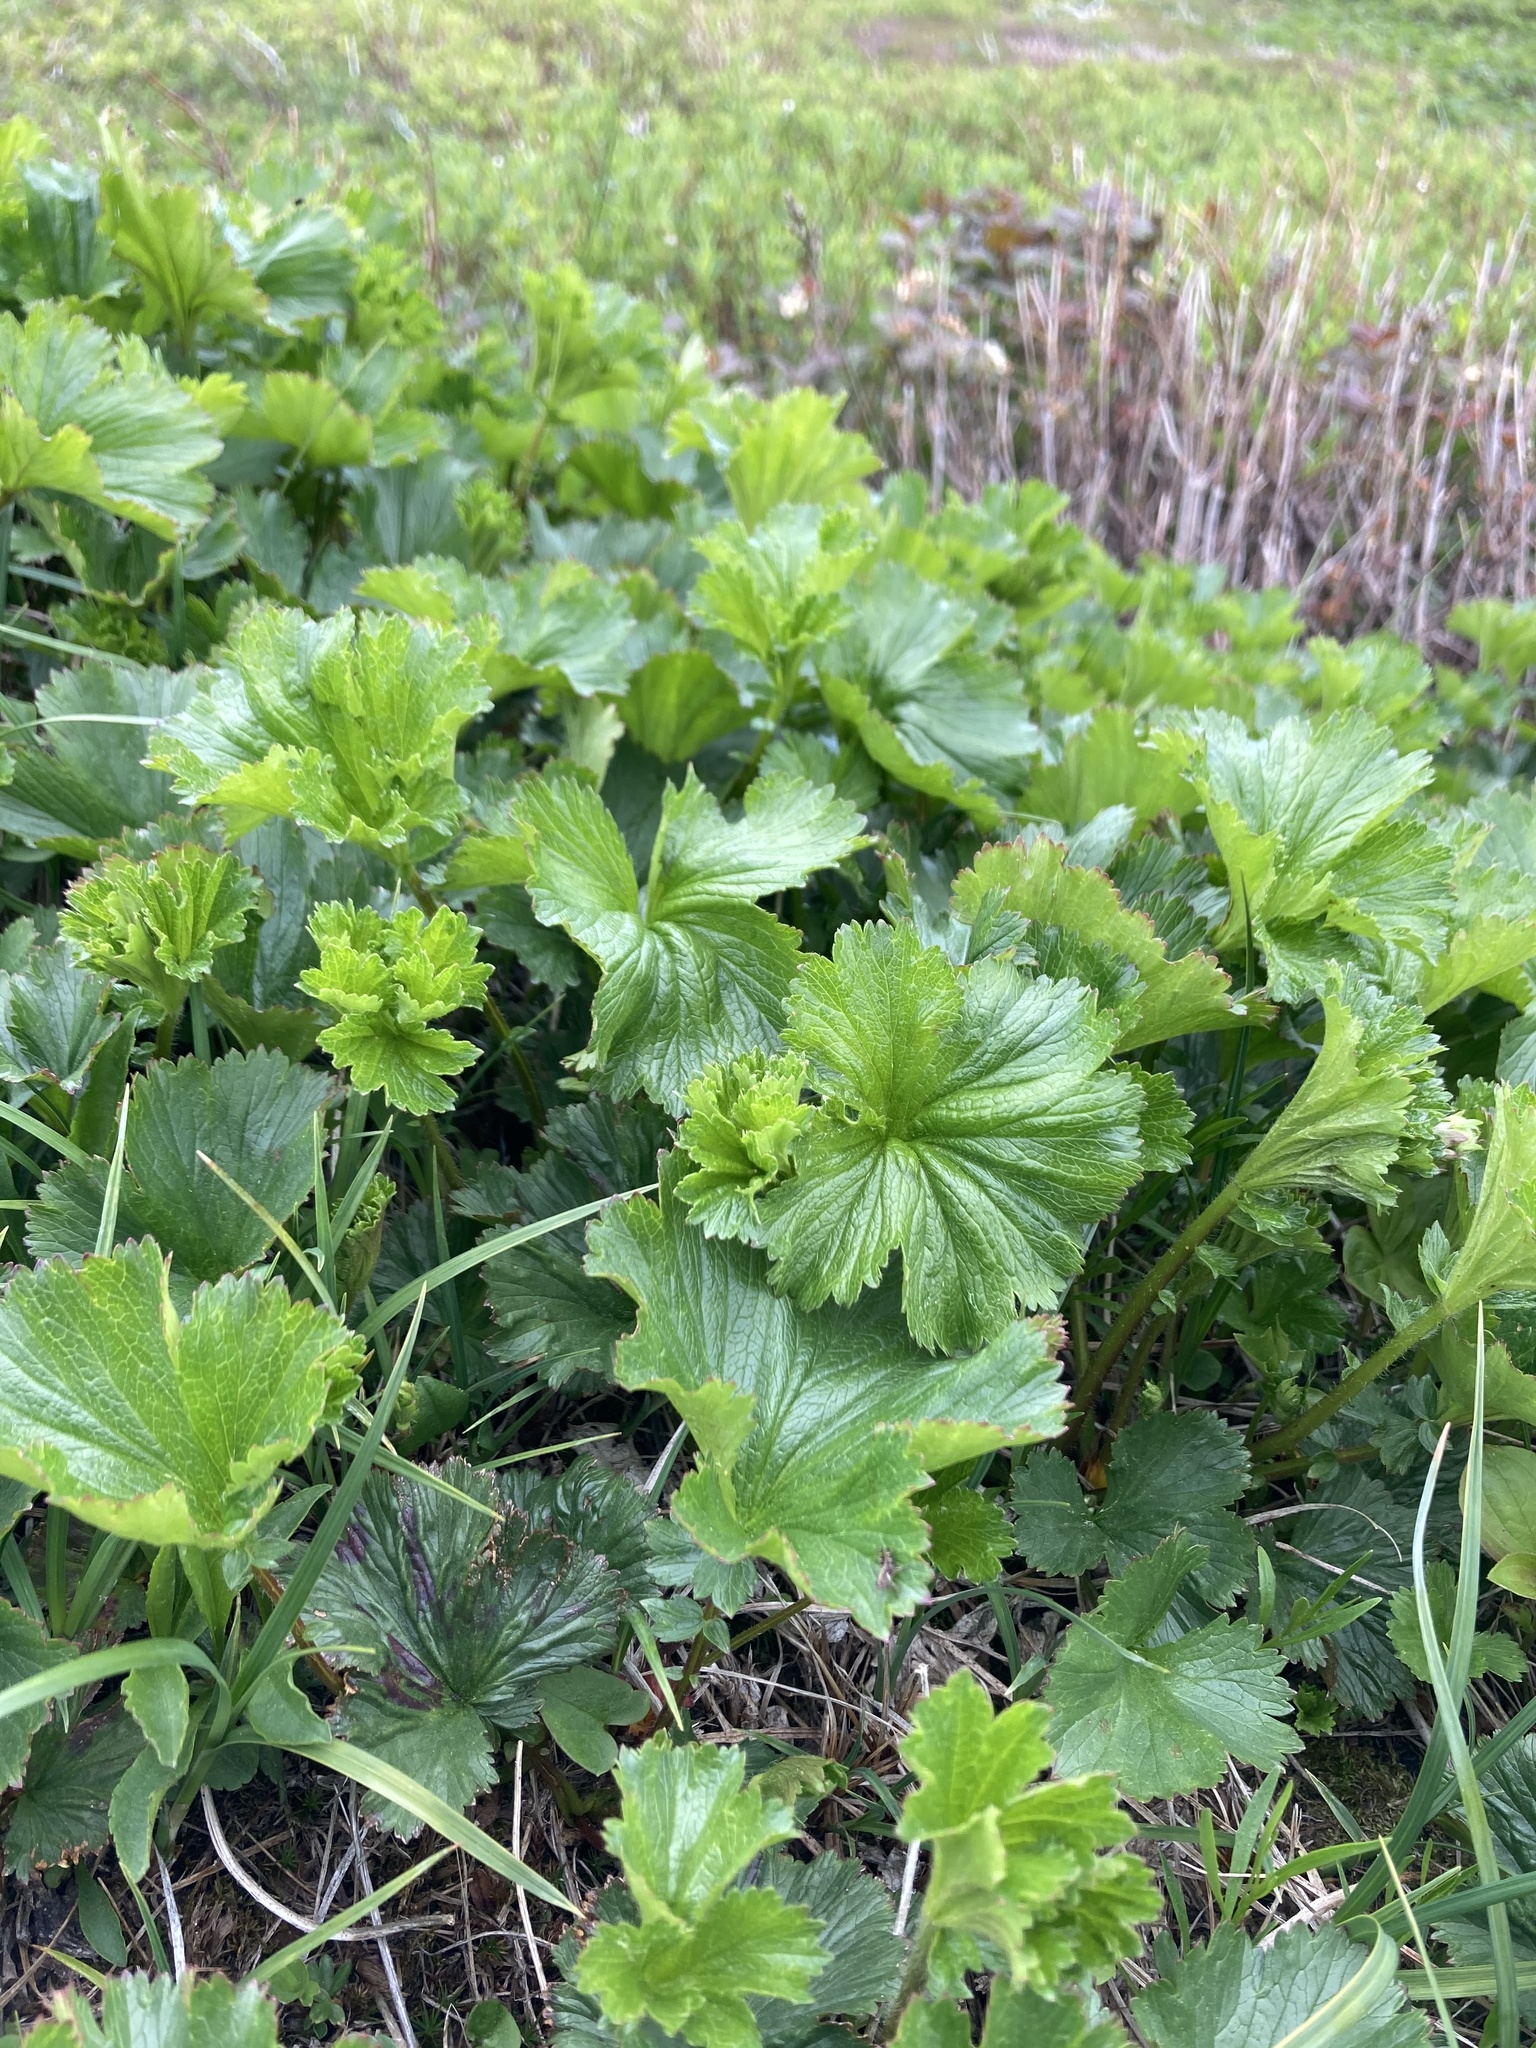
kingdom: Plantae
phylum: Tracheophyta
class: Magnoliopsida
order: Rosales
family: Rosaceae
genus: Geum
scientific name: Geum peckii
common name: Eastern mountain avens
